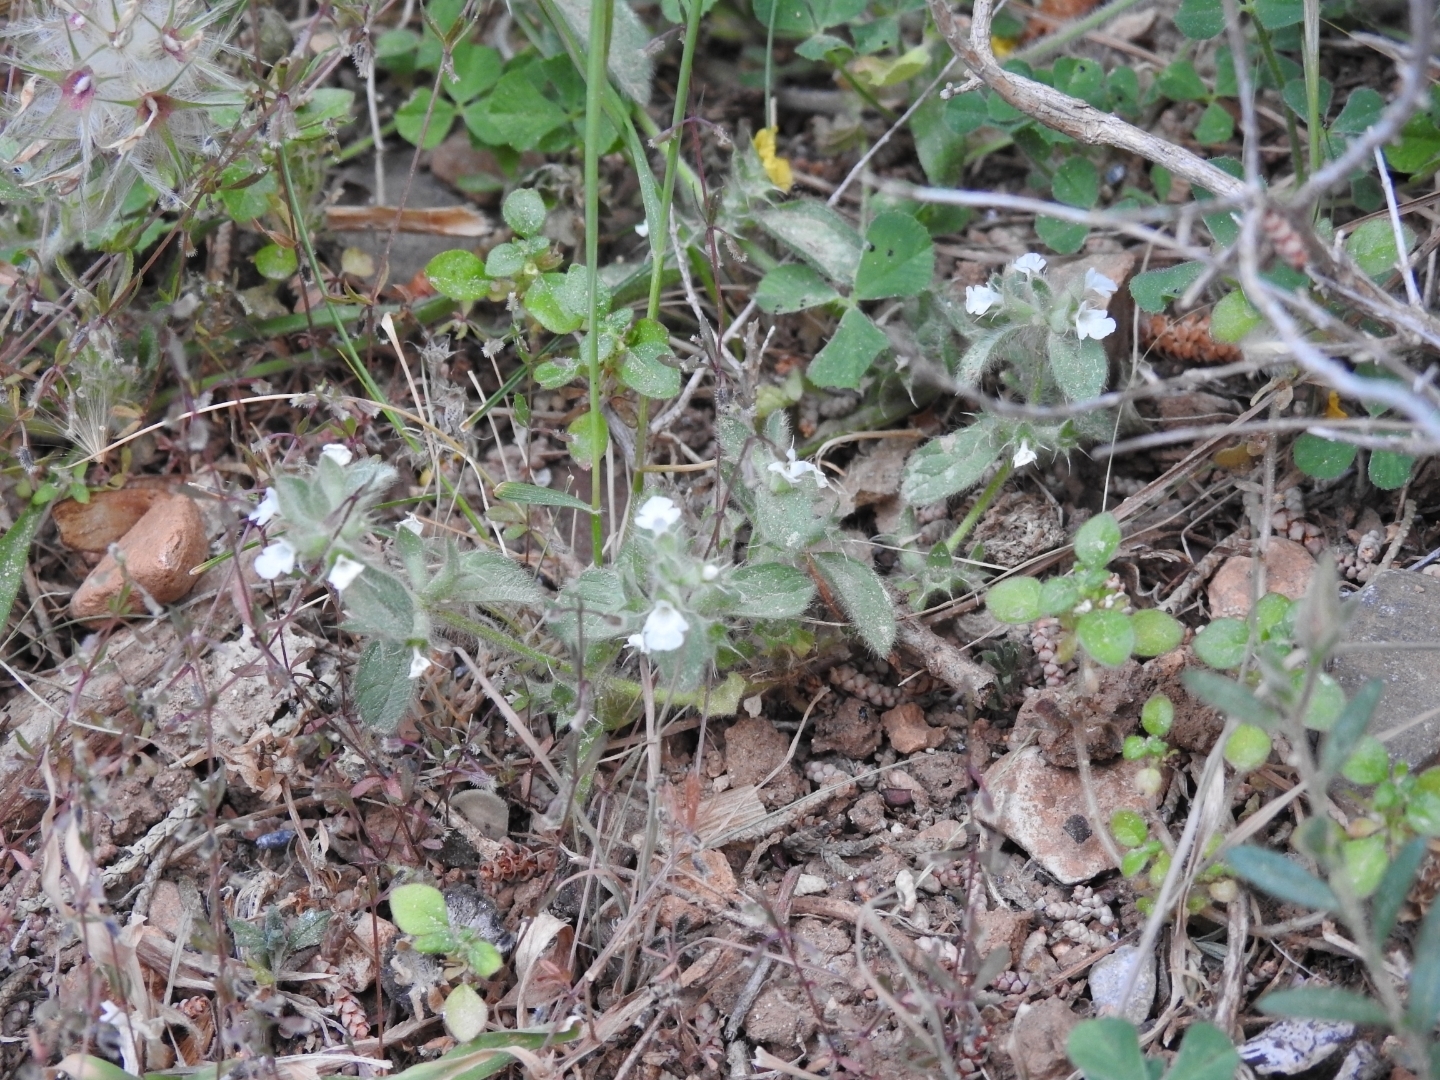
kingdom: Plantae
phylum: Tracheophyta
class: Magnoliopsida
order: Lamiales
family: Lamiaceae
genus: Sideritis
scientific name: Sideritis romana
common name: Simplebeak ironwort
